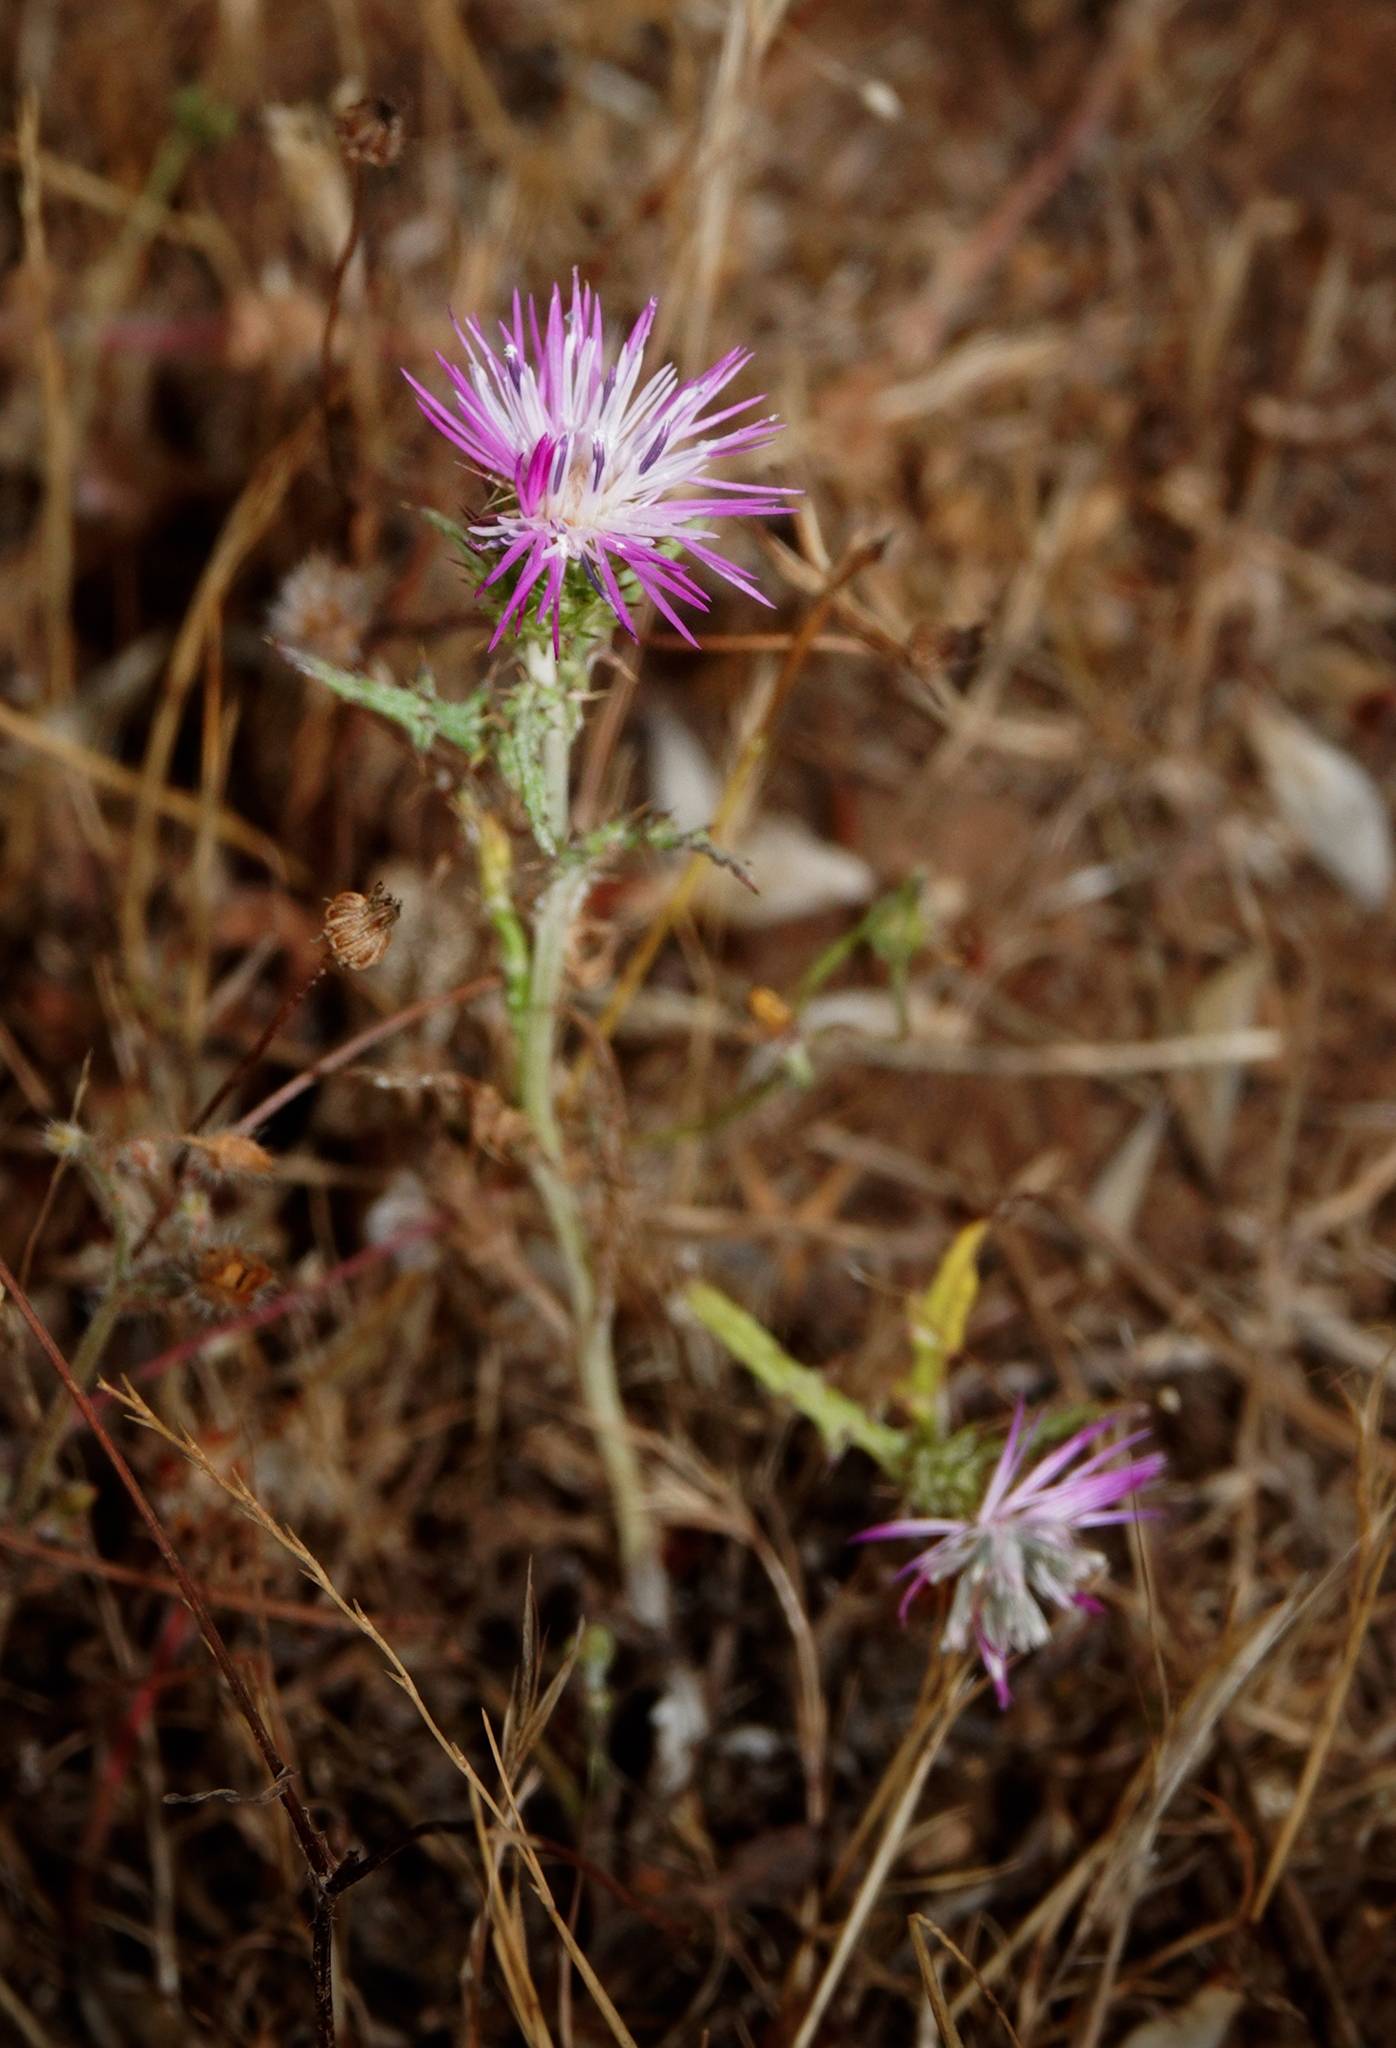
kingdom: Plantae
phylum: Tracheophyta
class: Magnoliopsida
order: Asterales
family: Asteraceae
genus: Galactites
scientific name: Galactites tomentosa
